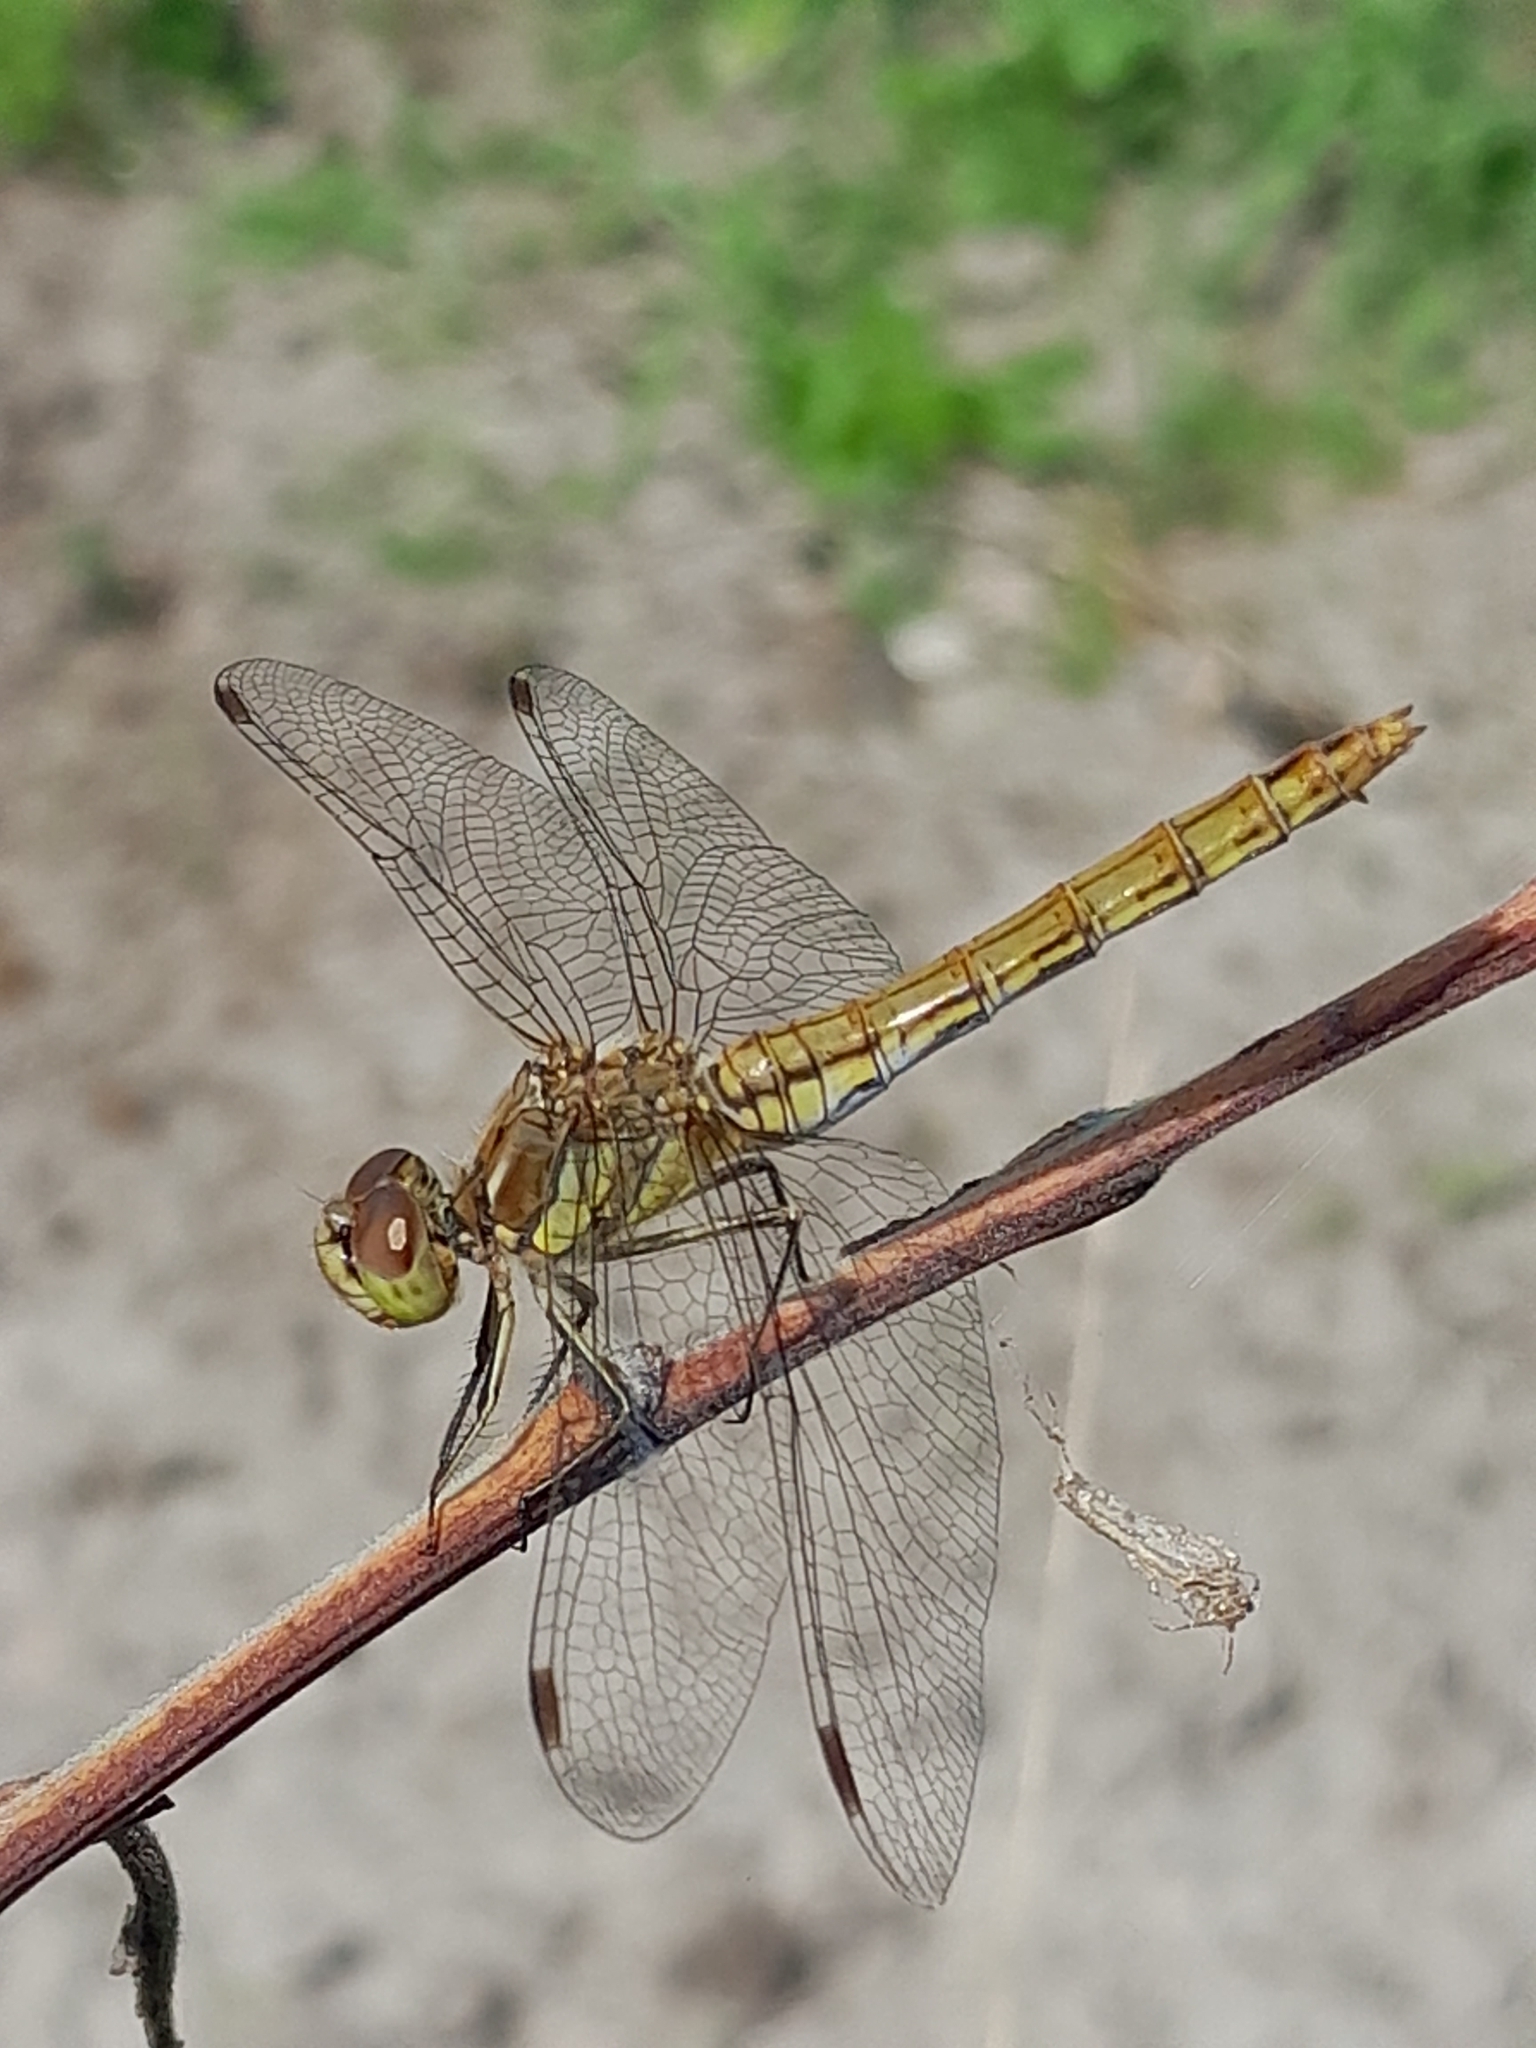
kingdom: Animalia
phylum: Arthropoda
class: Insecta
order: Odonata
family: Libellulidae
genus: Sympetrum
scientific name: Sympetrum vulgatum
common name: Vagrant darter
